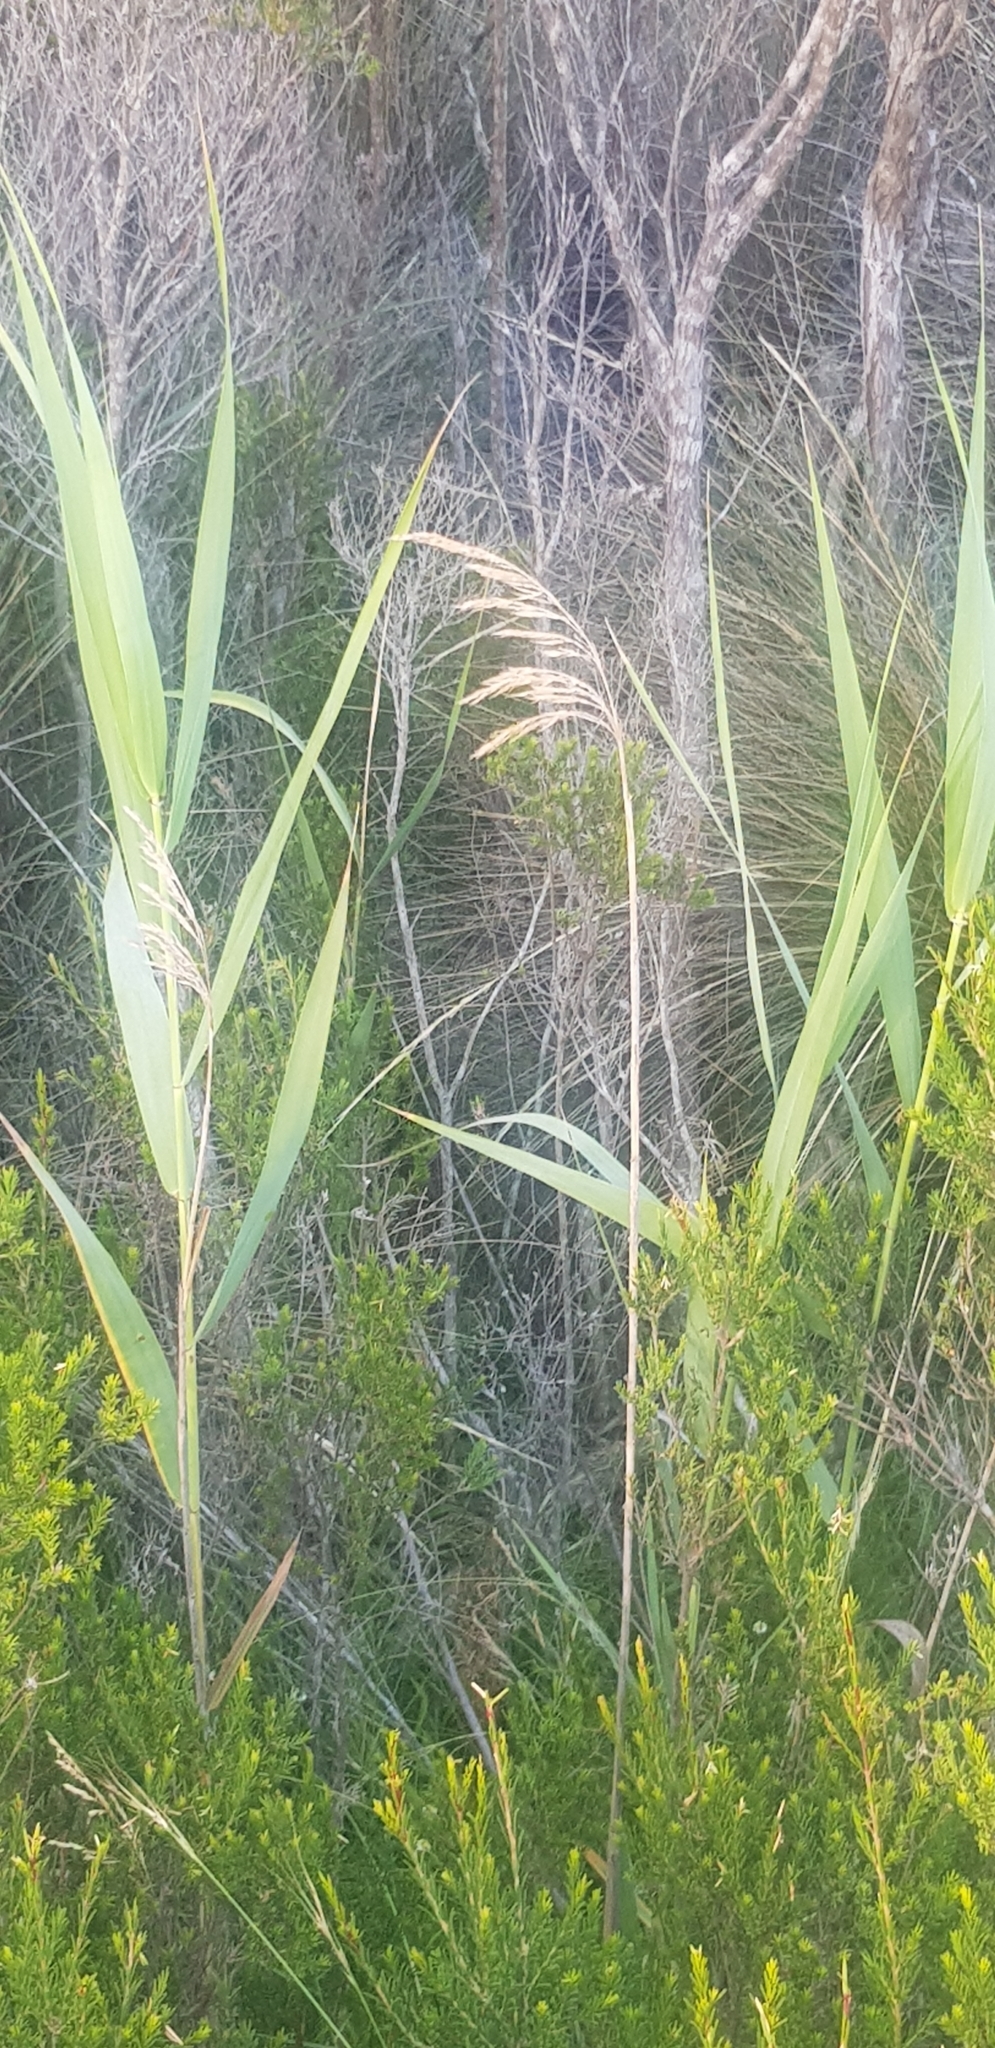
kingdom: Plantae
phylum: Tracheophyta
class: Liliopsida
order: Poales
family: Poaceae
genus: Phragmites
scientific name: Phragmites australis
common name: Common reed
